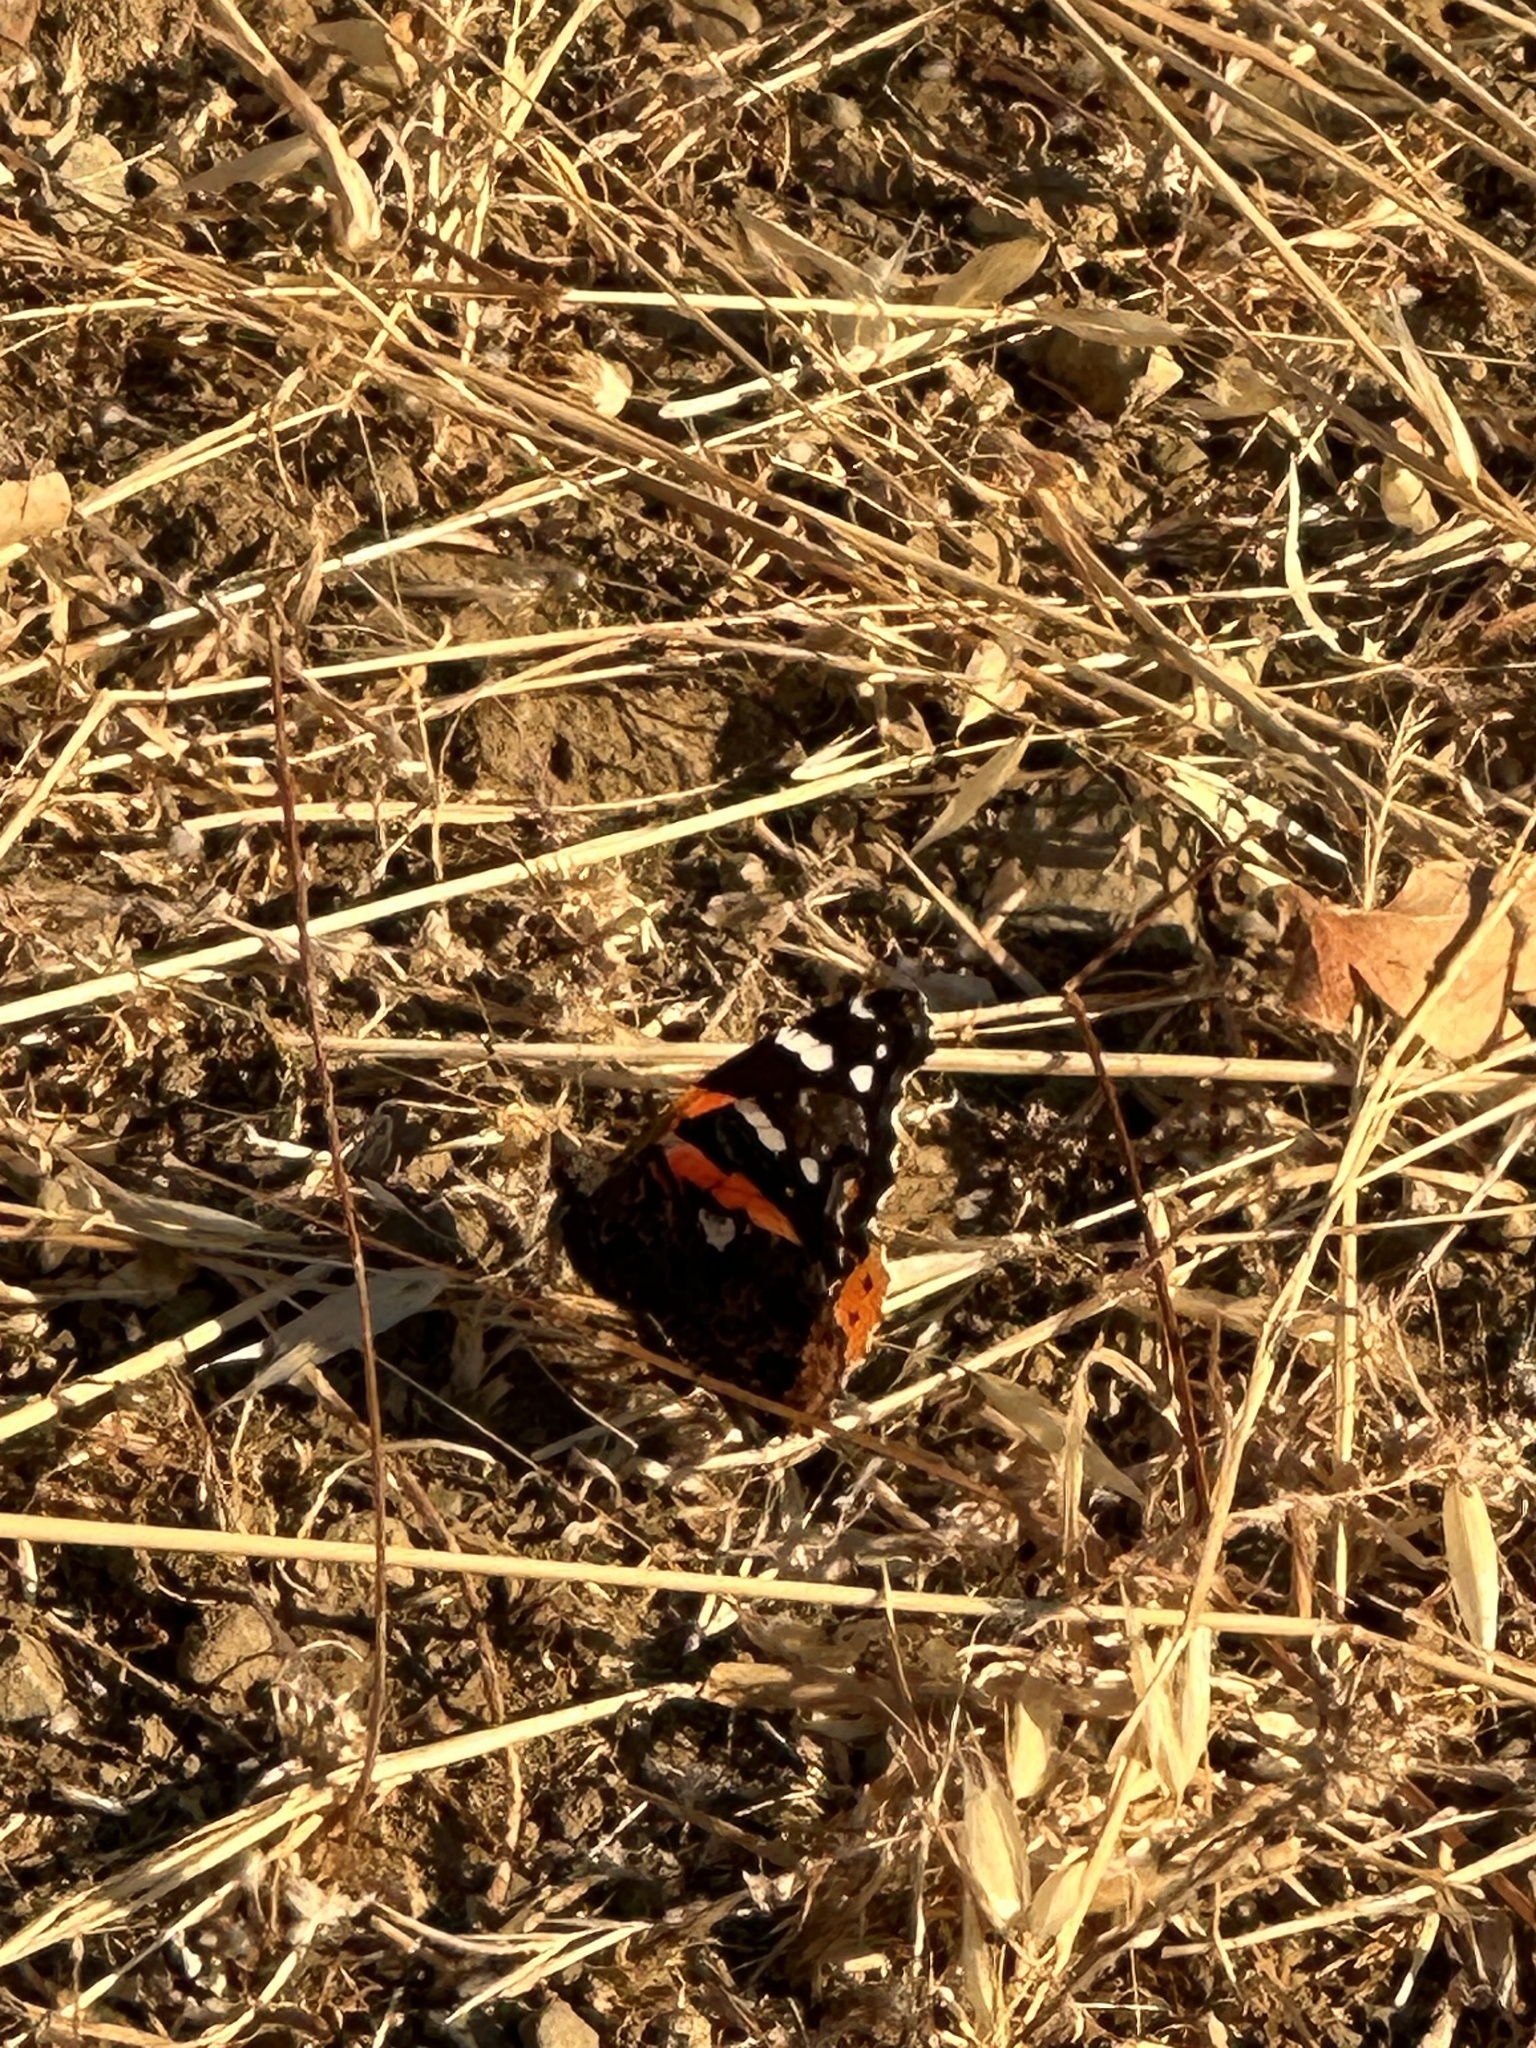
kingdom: Animalia
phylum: Arthropoda
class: Insecta
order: Lepidoptera
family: Nymphalidae
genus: Vanessa
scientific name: Vanessa atalanta
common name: Red admiral
